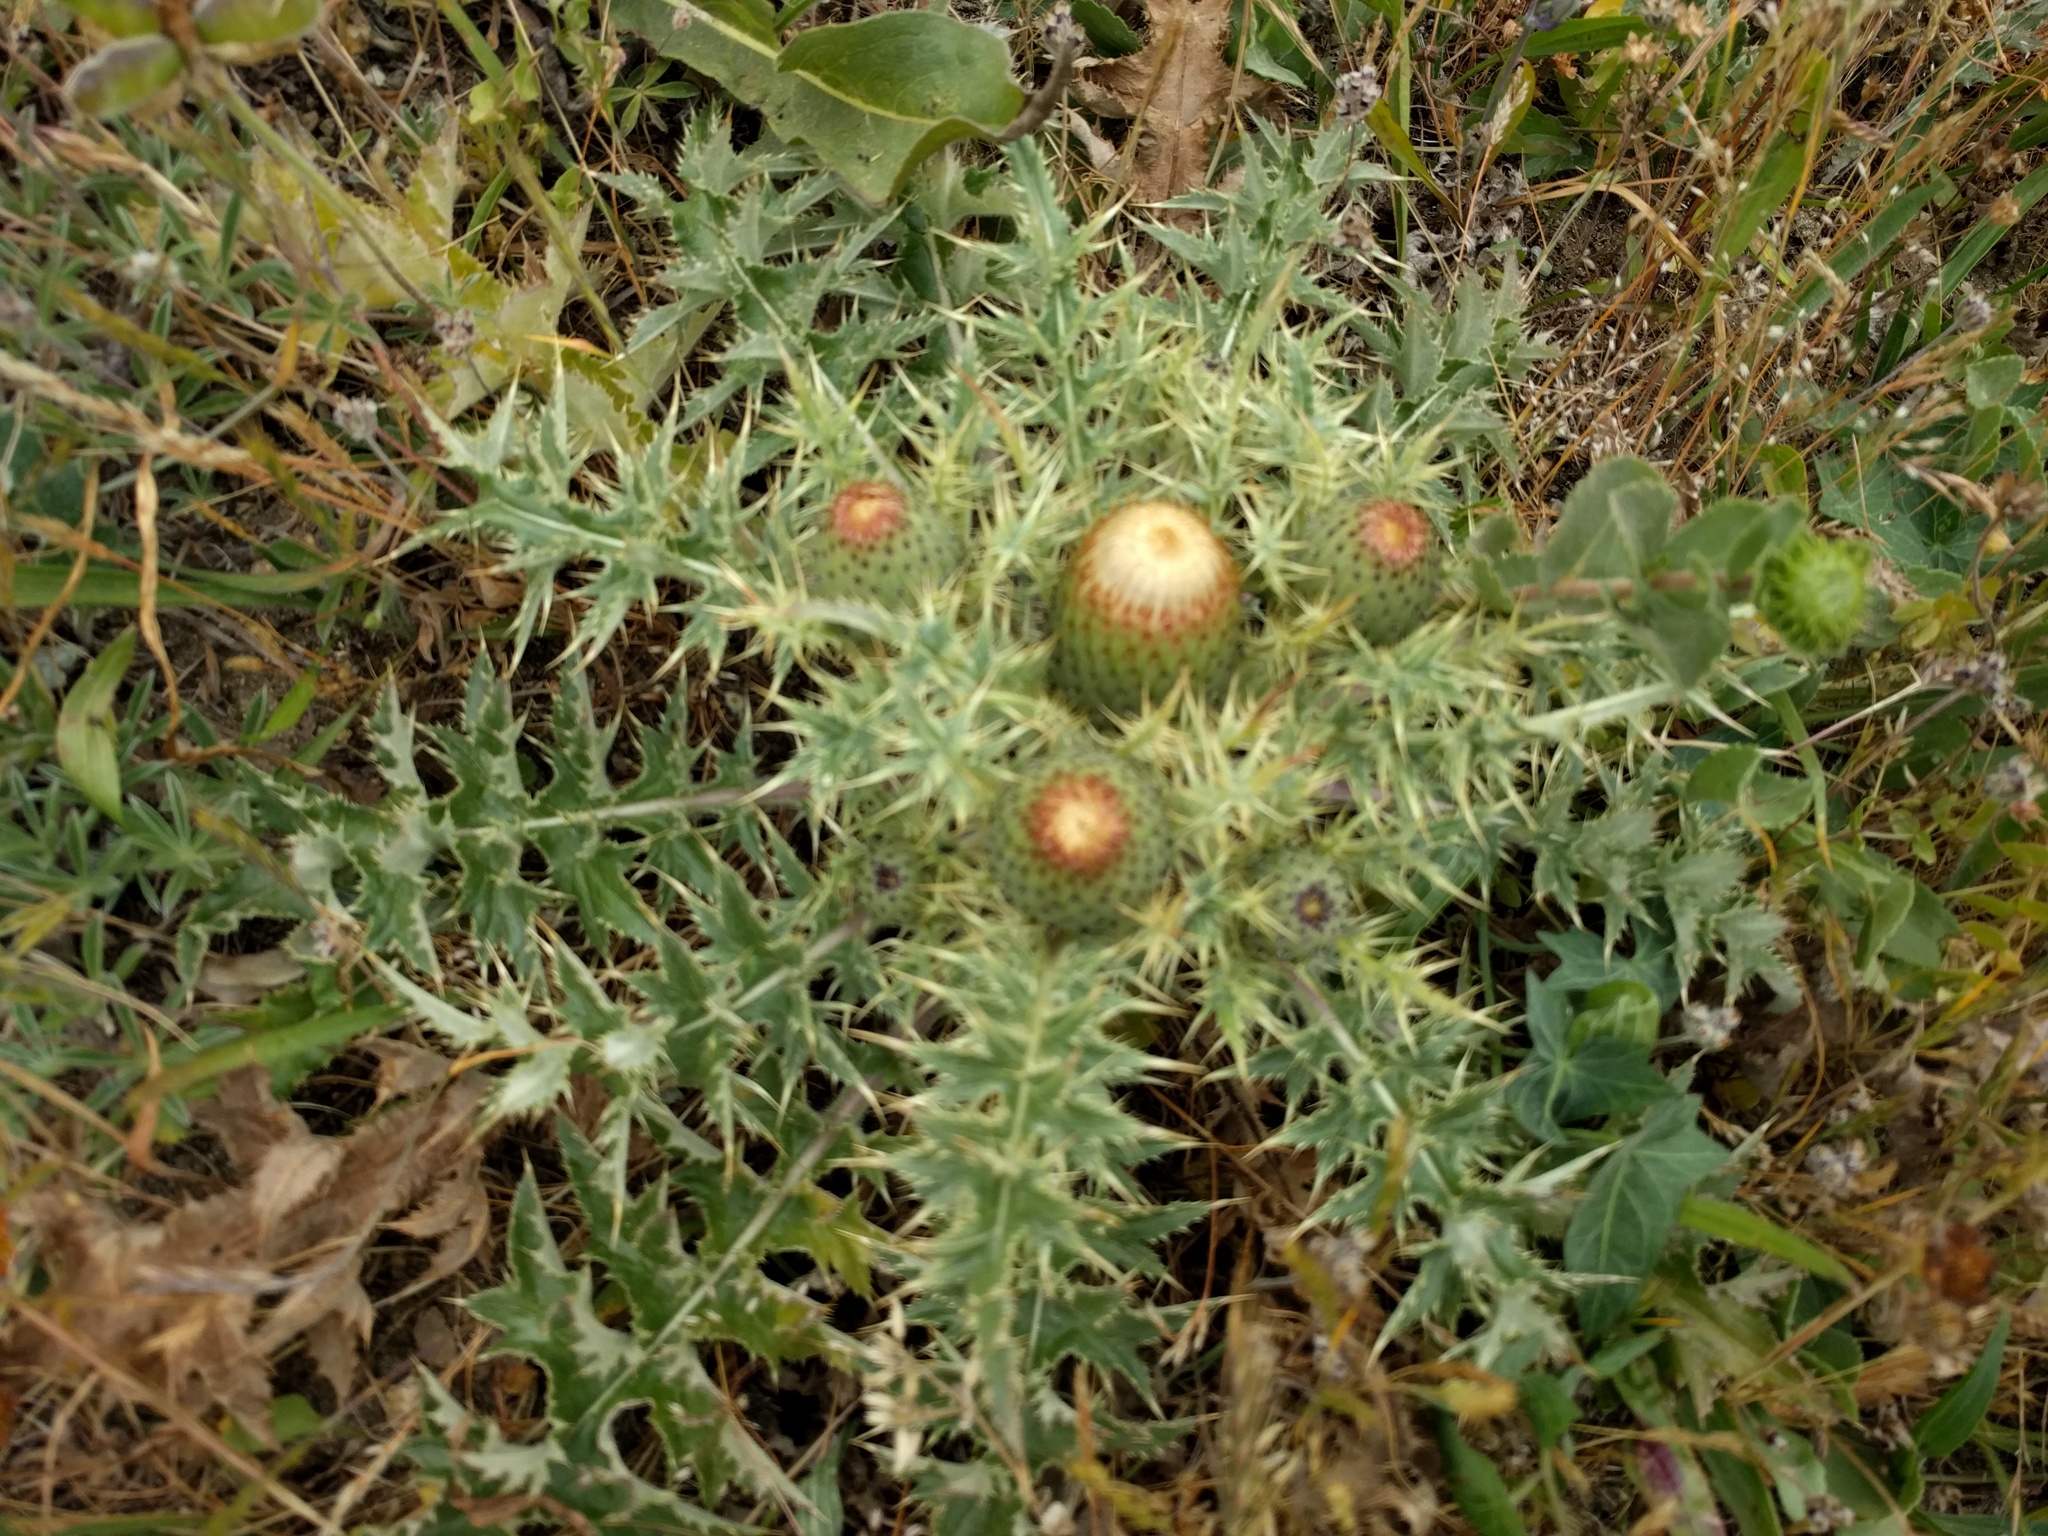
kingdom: Plantae
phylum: Tracheophyta
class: Magnoliopsida
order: Asterales
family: Asteraceae
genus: Cirsium
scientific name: Cirsium quercetorum
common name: Alameda county thistle
